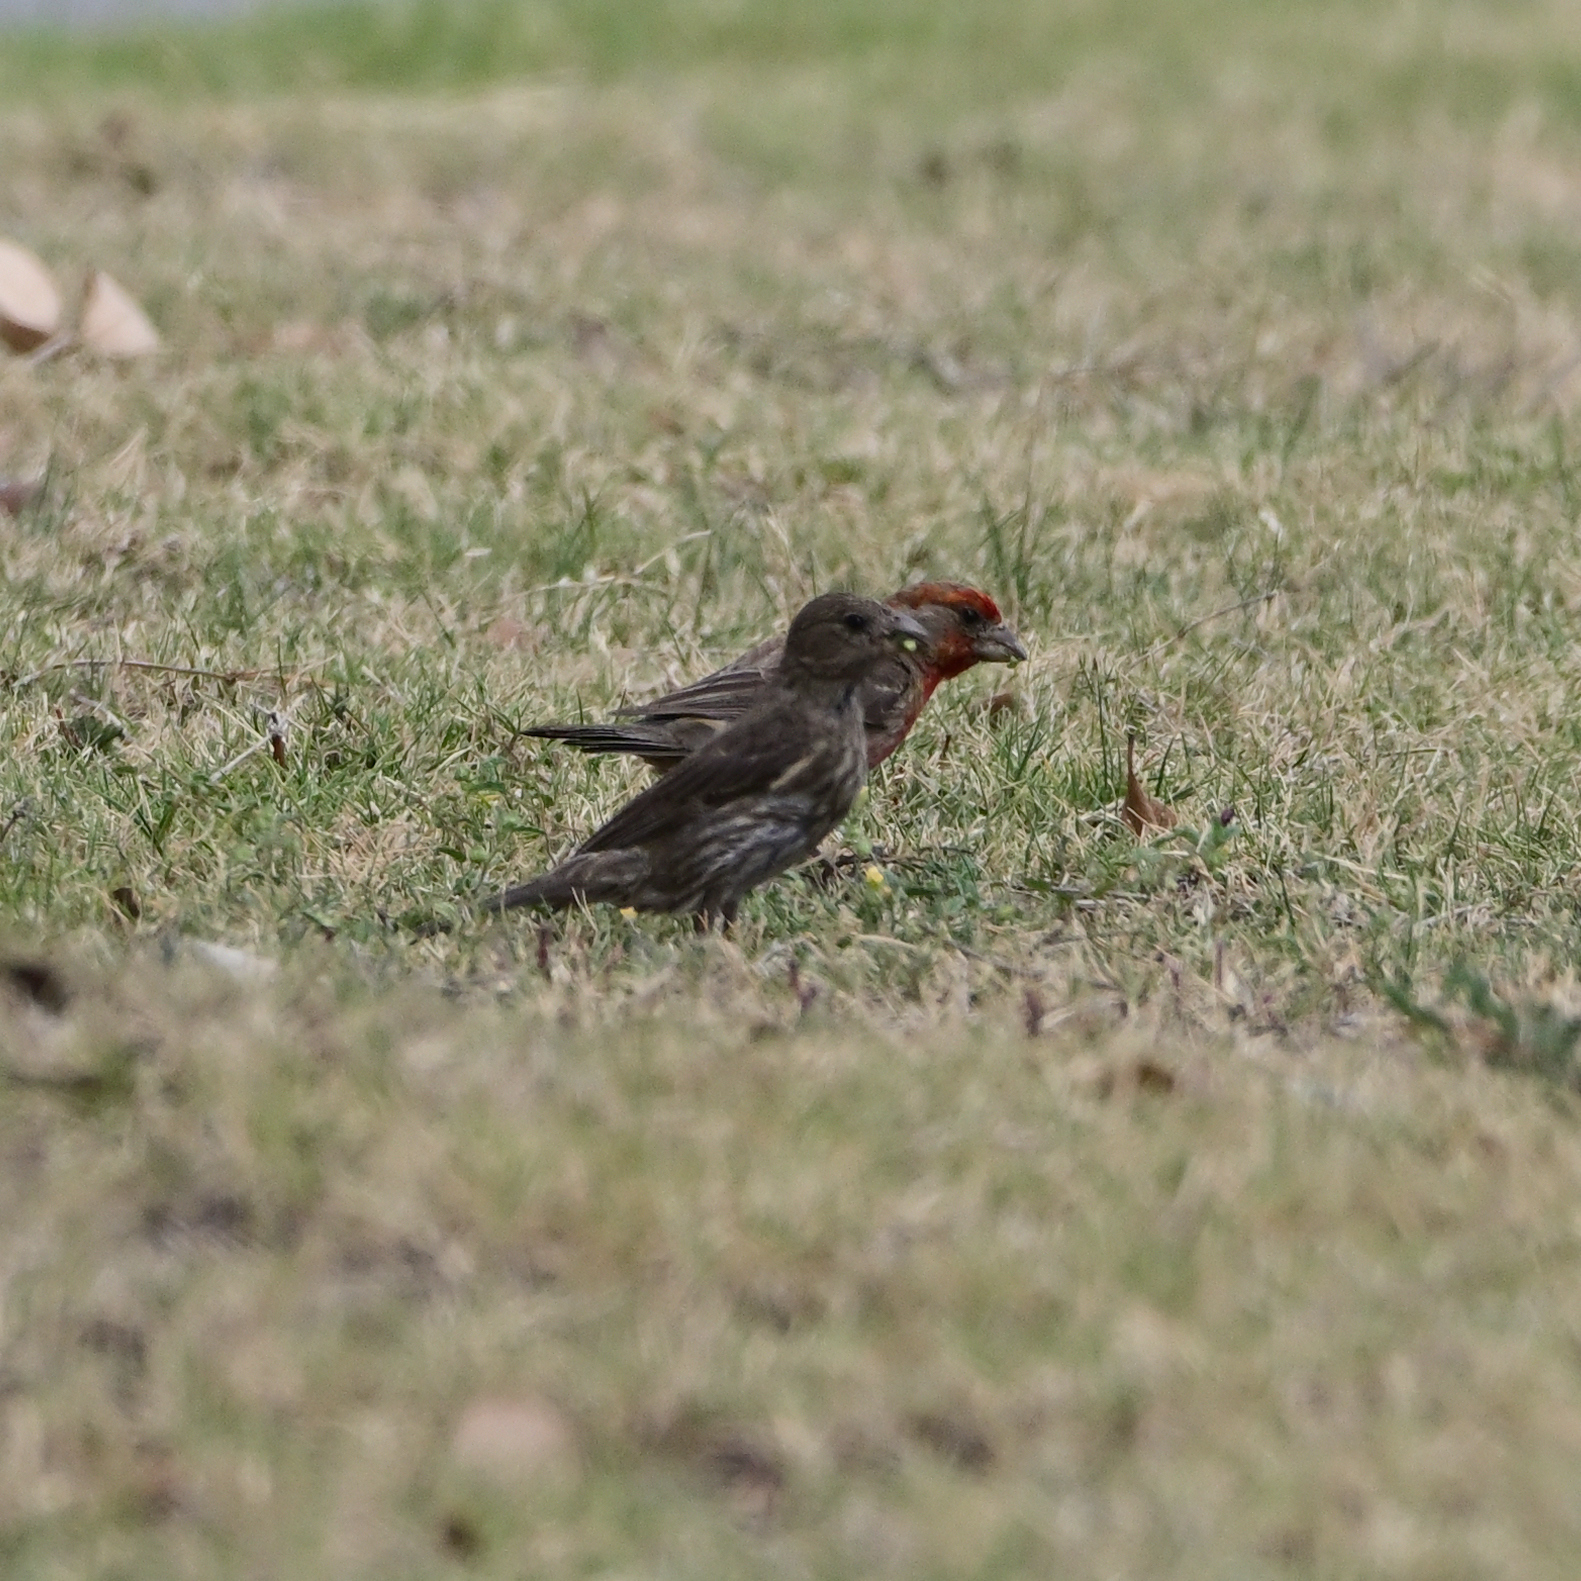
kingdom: Animalia
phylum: Chordata
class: Aves
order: Passeriformes
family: Fringillidae
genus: Haemorhous
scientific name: Haemorhous mexicanus
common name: House finch
